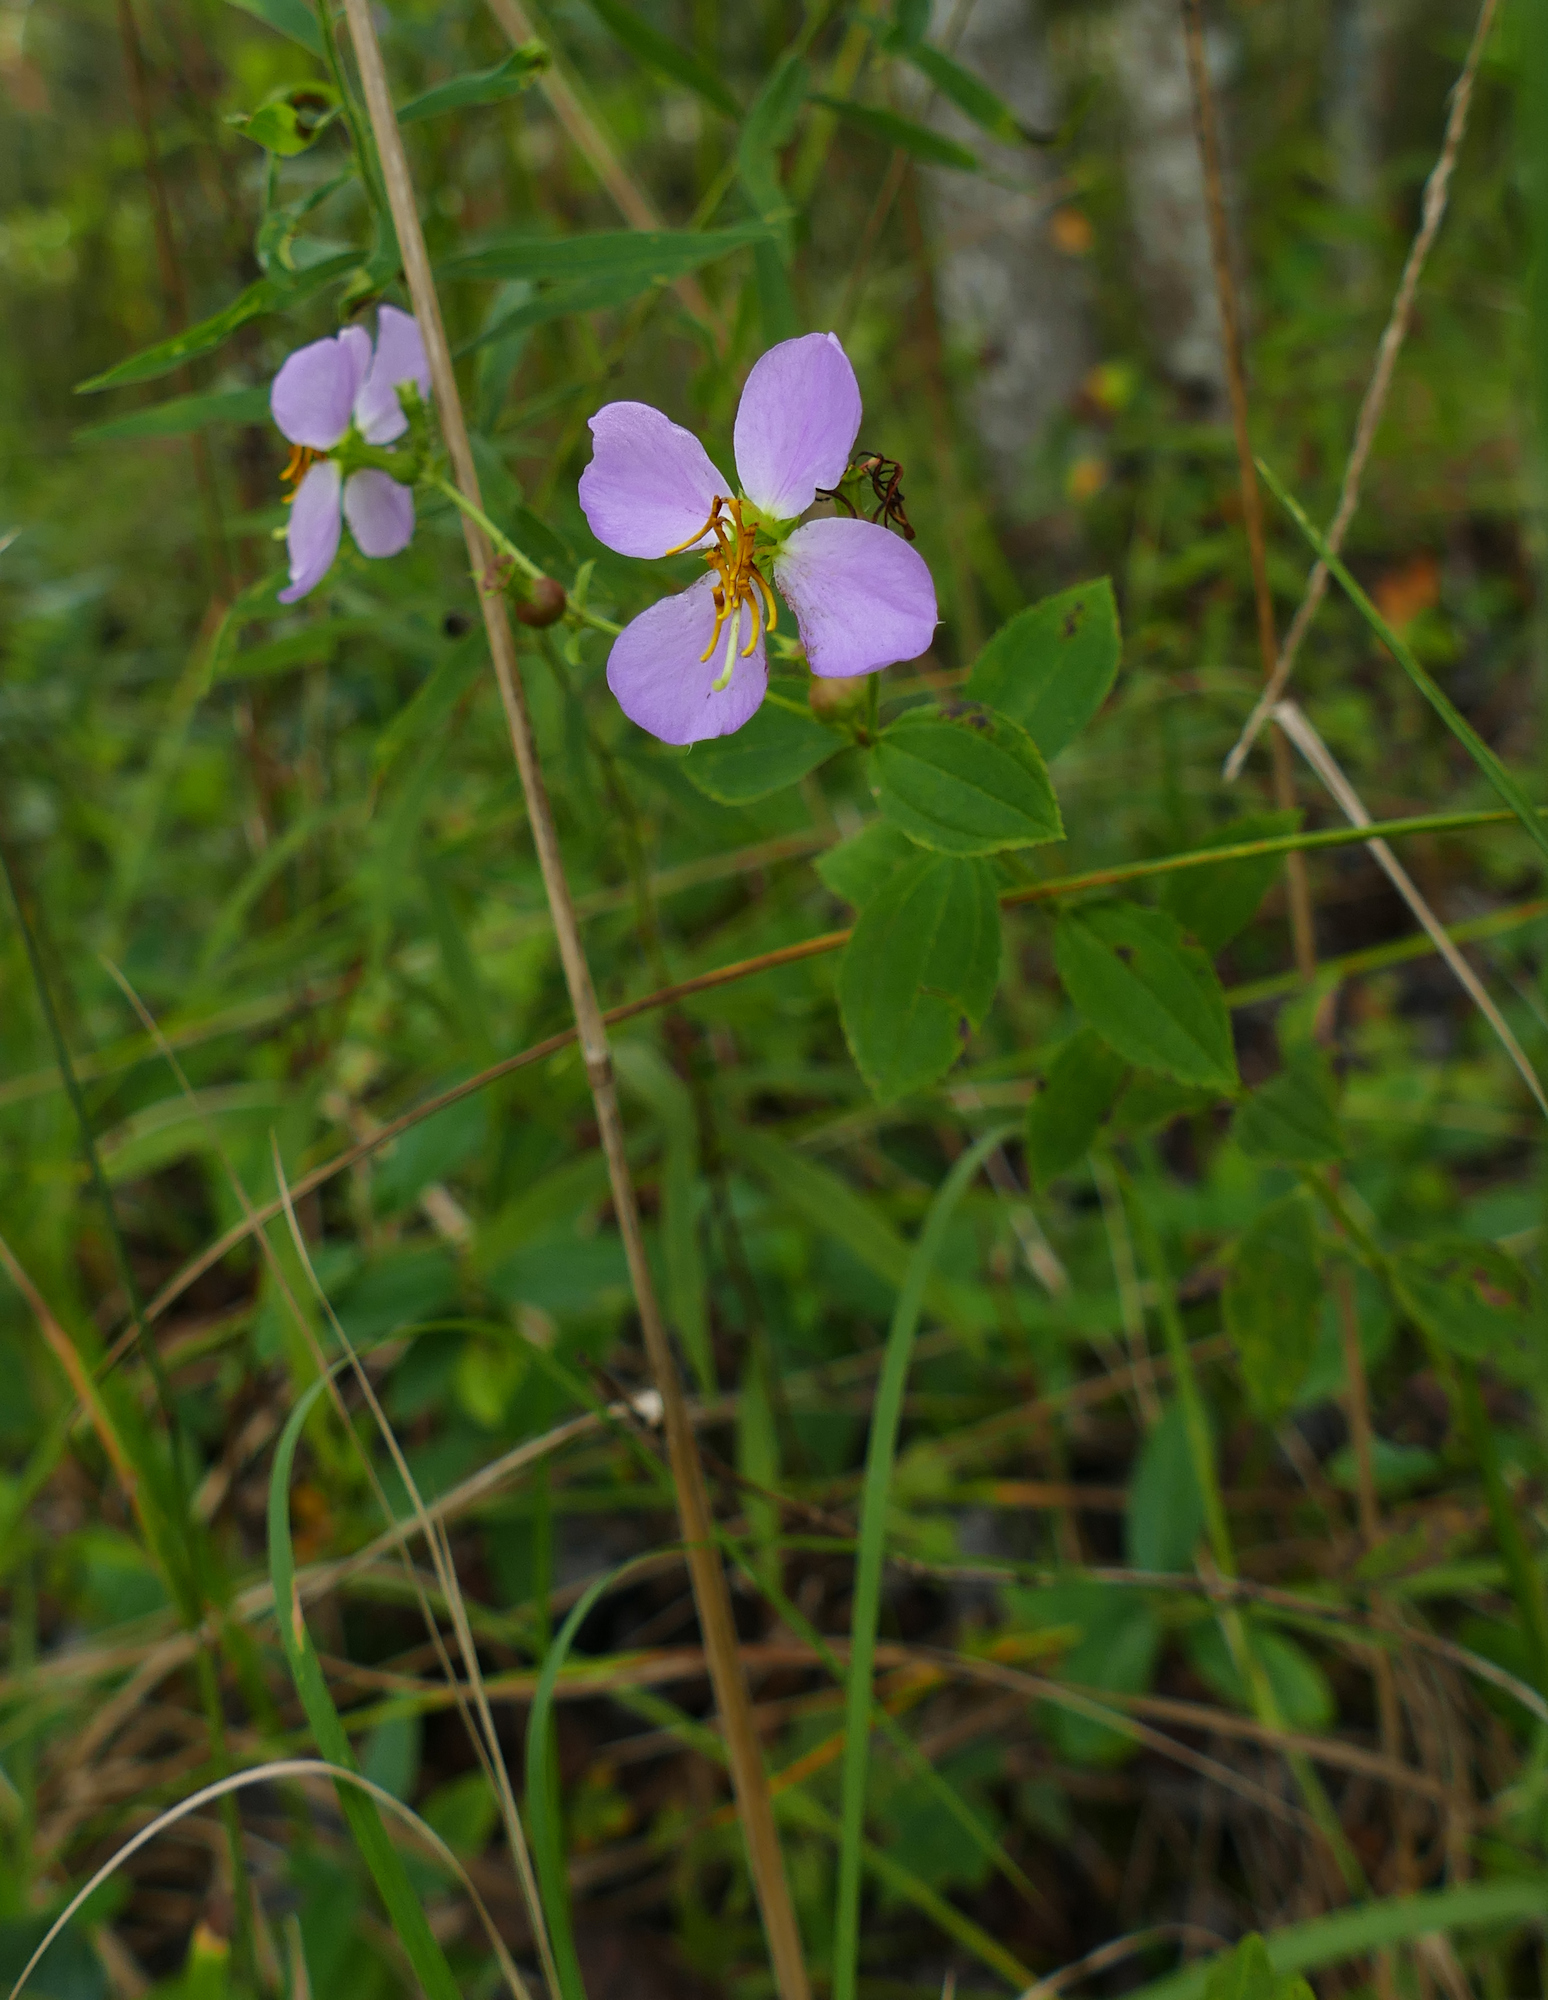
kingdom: Plantae
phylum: Tracheophyta
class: Magnoliopsida
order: Myrtales
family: Melastomataceae
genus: Rhexia
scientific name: Rhexia mariana
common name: Dull meadow-pitcher
